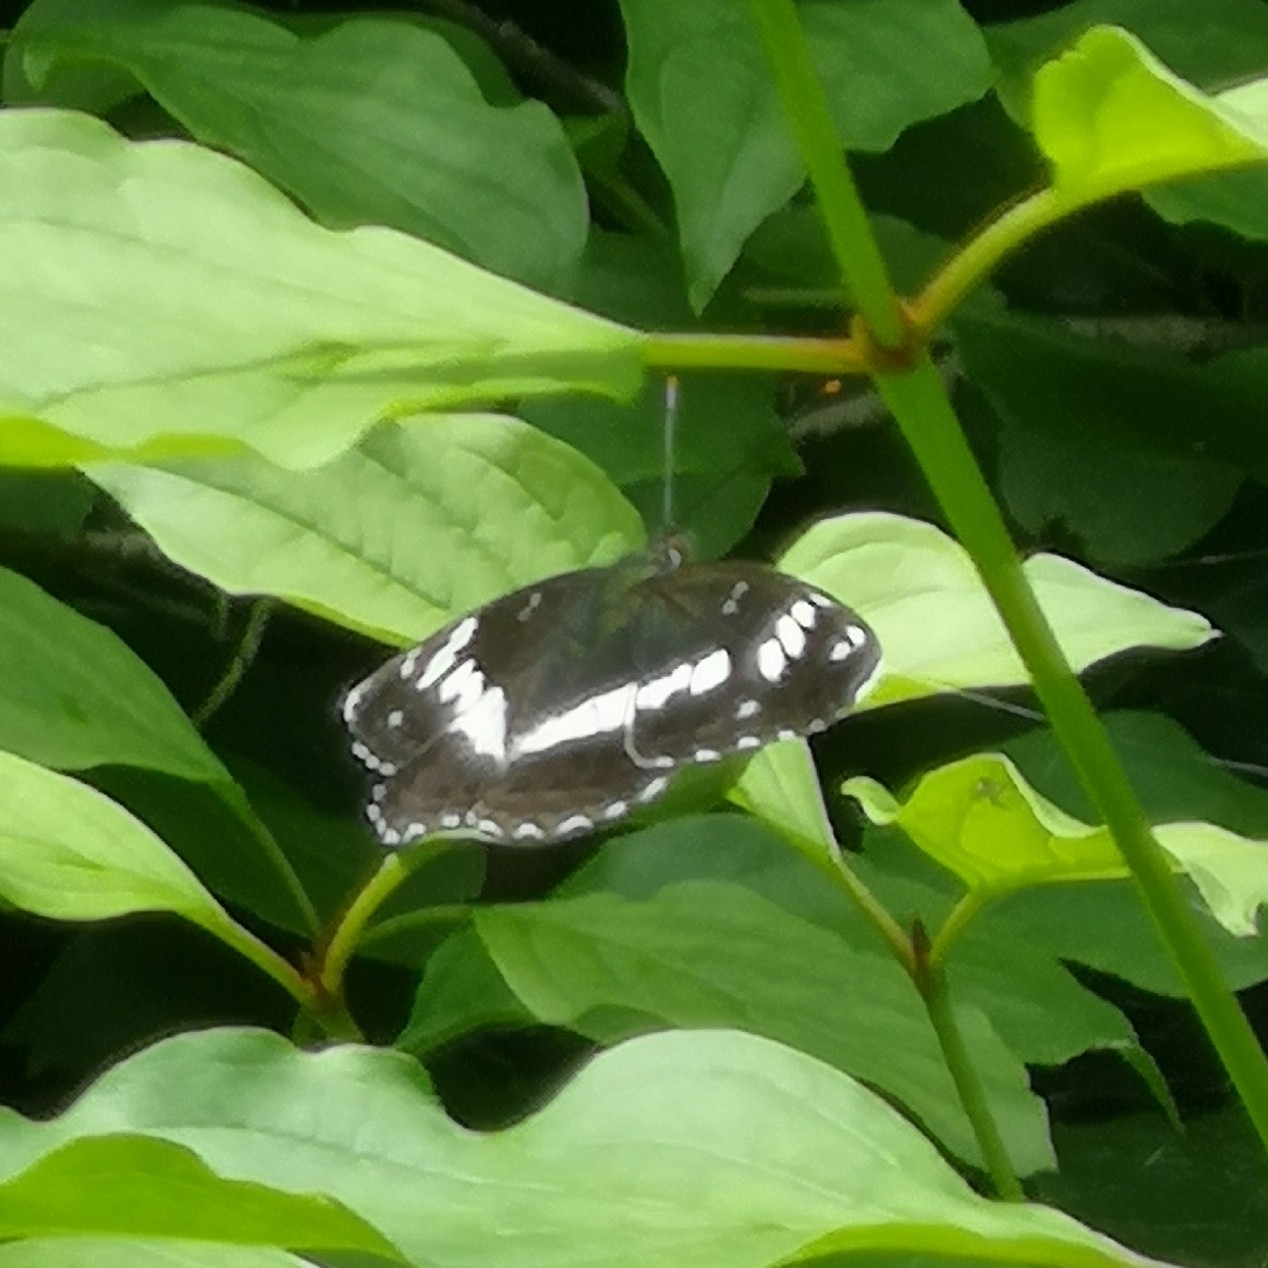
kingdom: Animalia
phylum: Arthropoda
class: Insecta
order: Lepidoptera
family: Nymphalidae
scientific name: Nymphalidae
